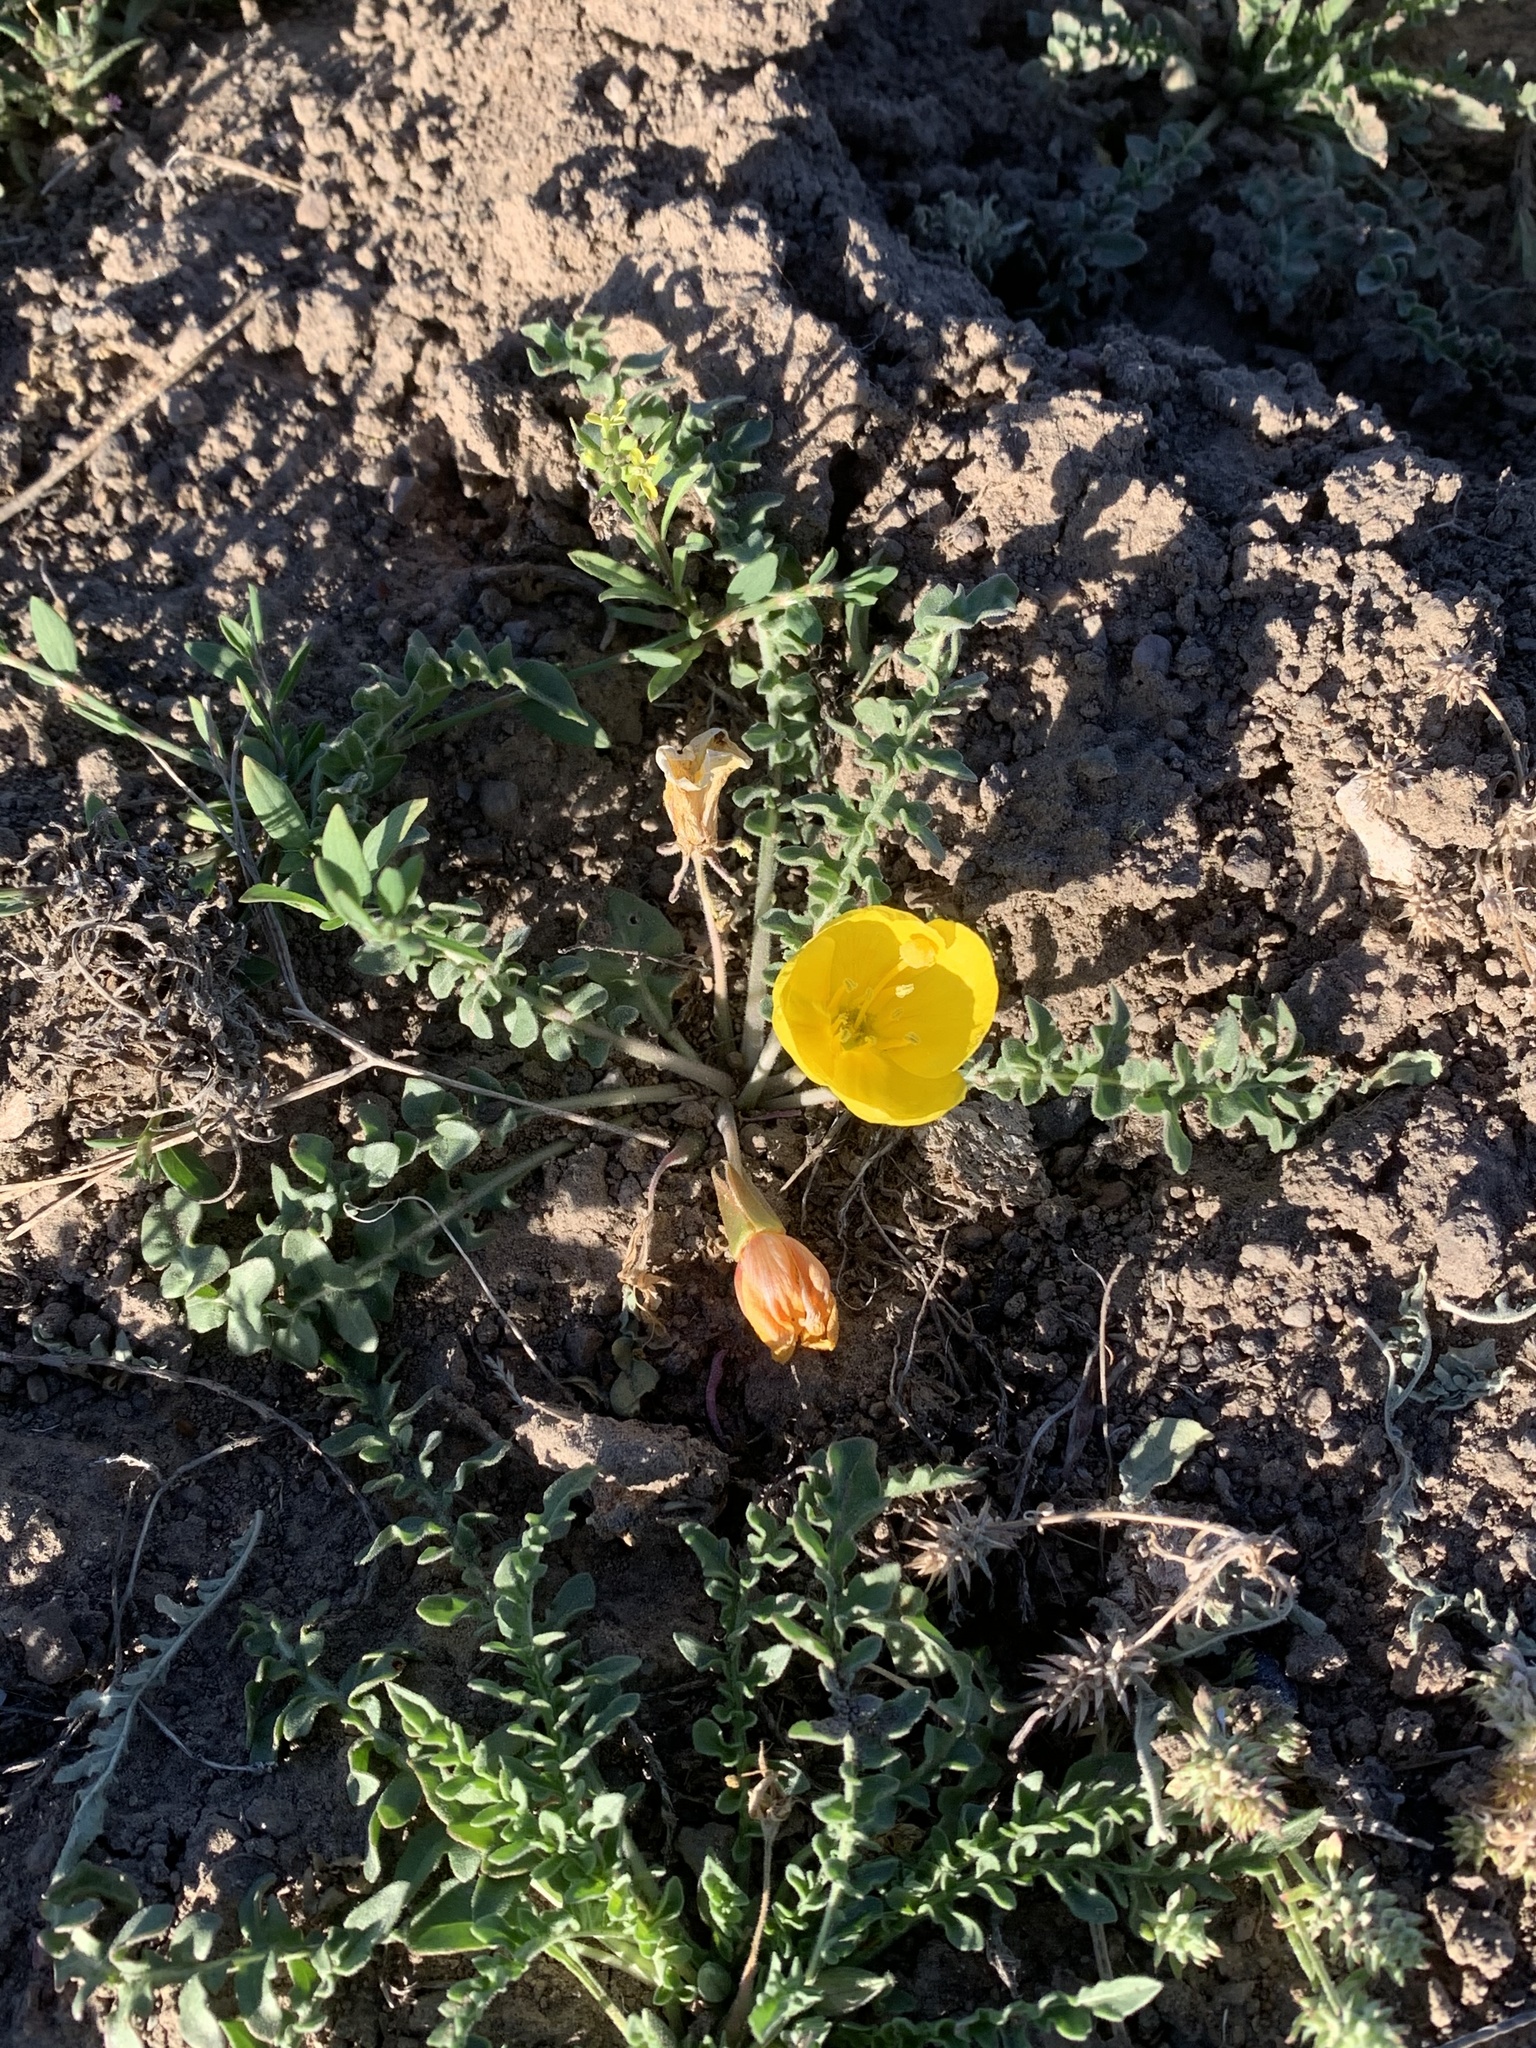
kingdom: Plantae
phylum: Tracheophyta
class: Magnoliopsida
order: Myrtales
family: Onagraceae
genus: Taraxia
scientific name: Taraxia tanacetifolia
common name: Tansyleaf evening primrose
